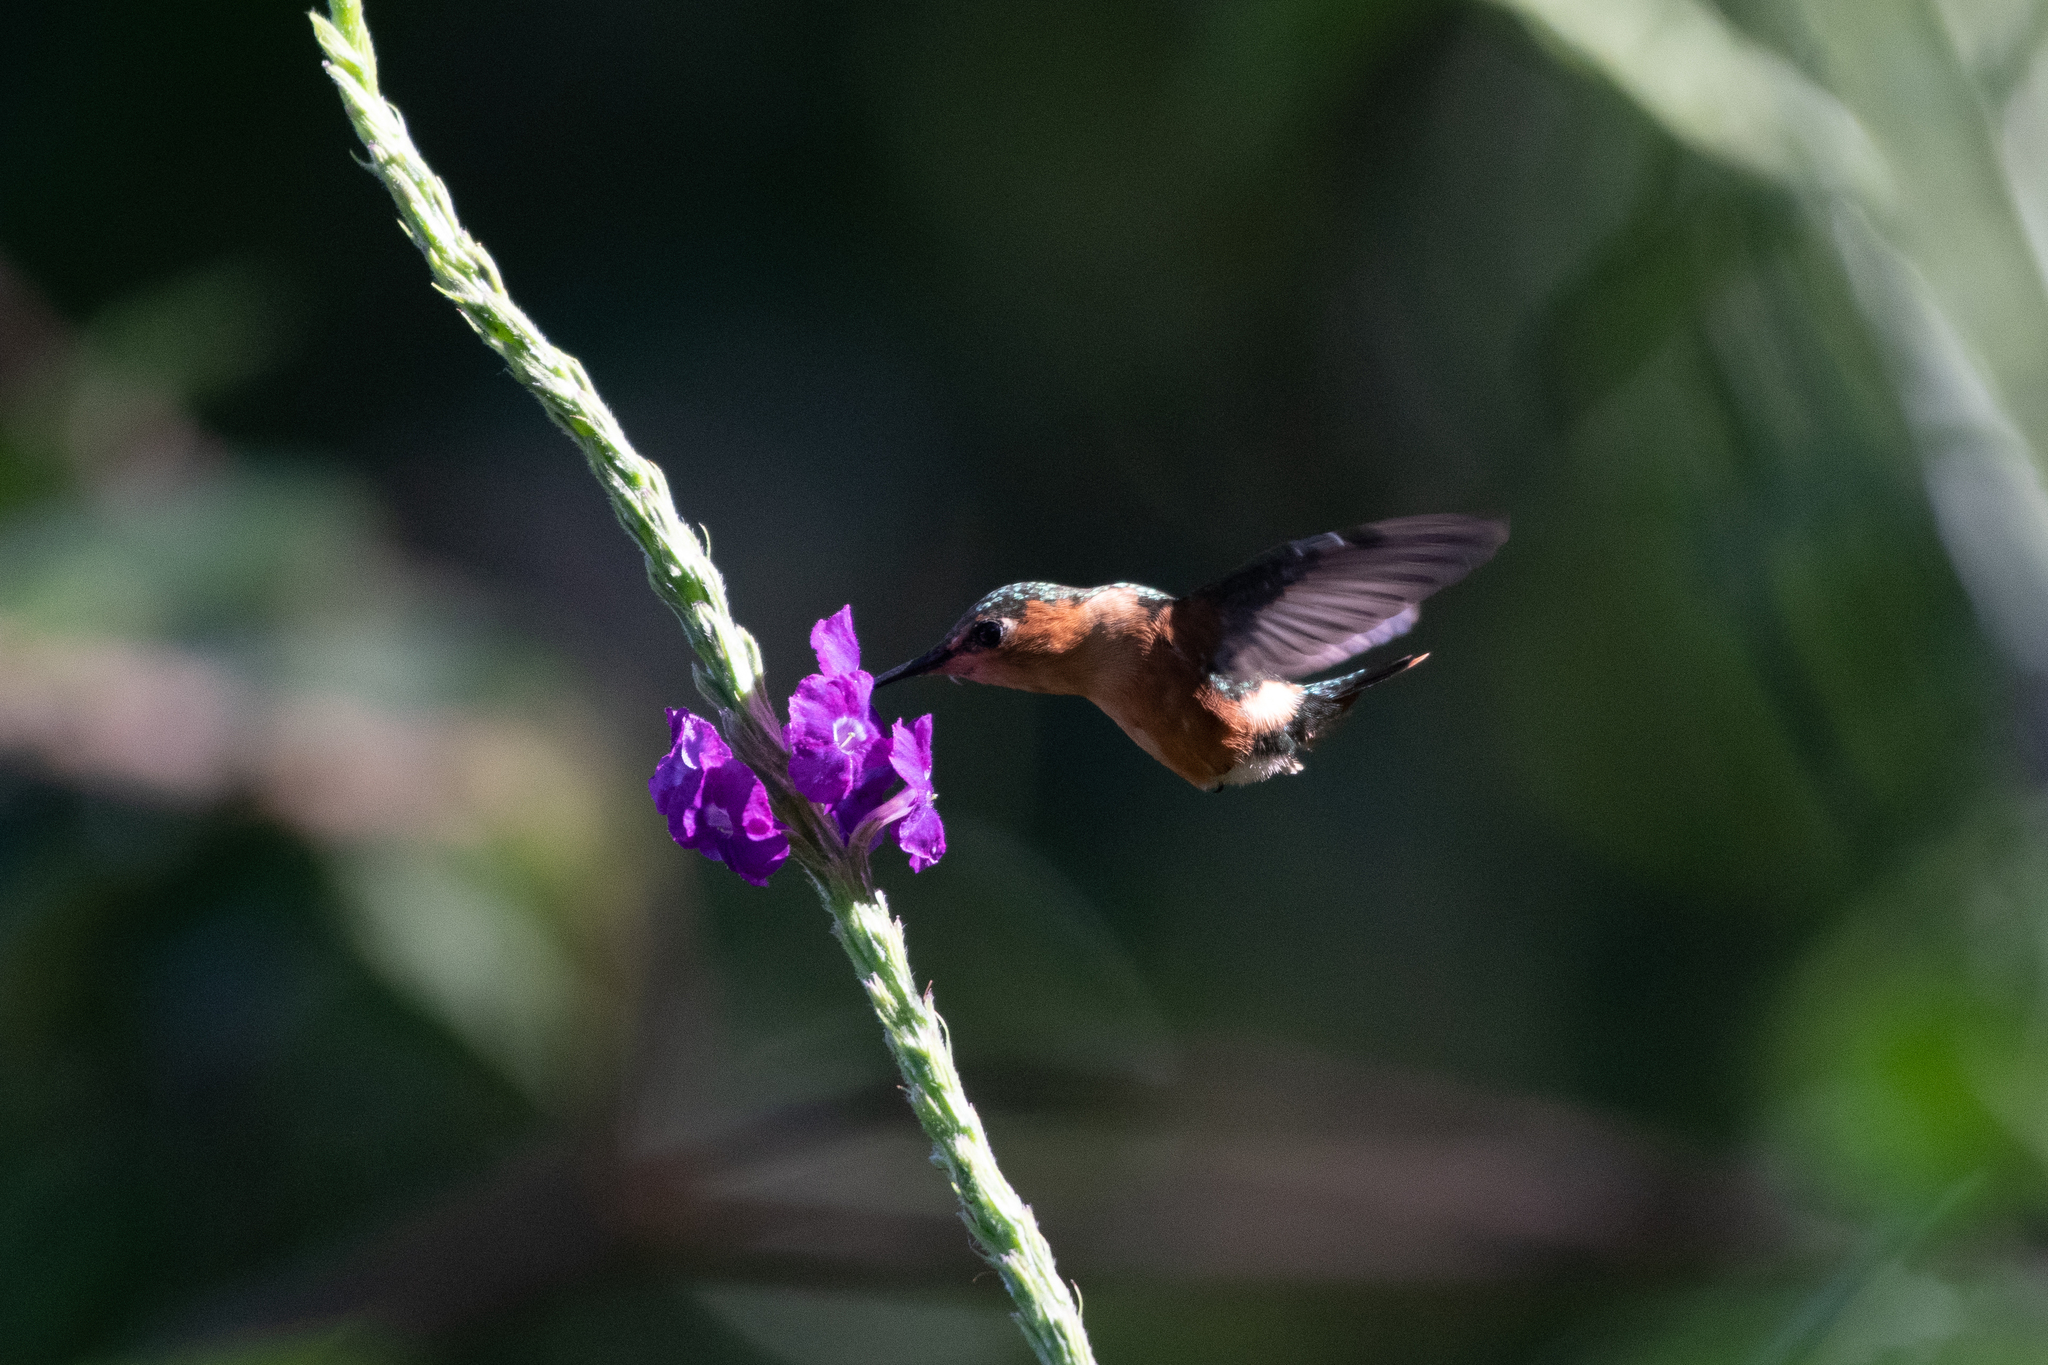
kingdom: Animalia
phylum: Chordata
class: Aves
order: Apodiformes
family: Trochilidae
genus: Tilmatura
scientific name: Tilmatura dupontii
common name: Sparkling-tailed woodstar
